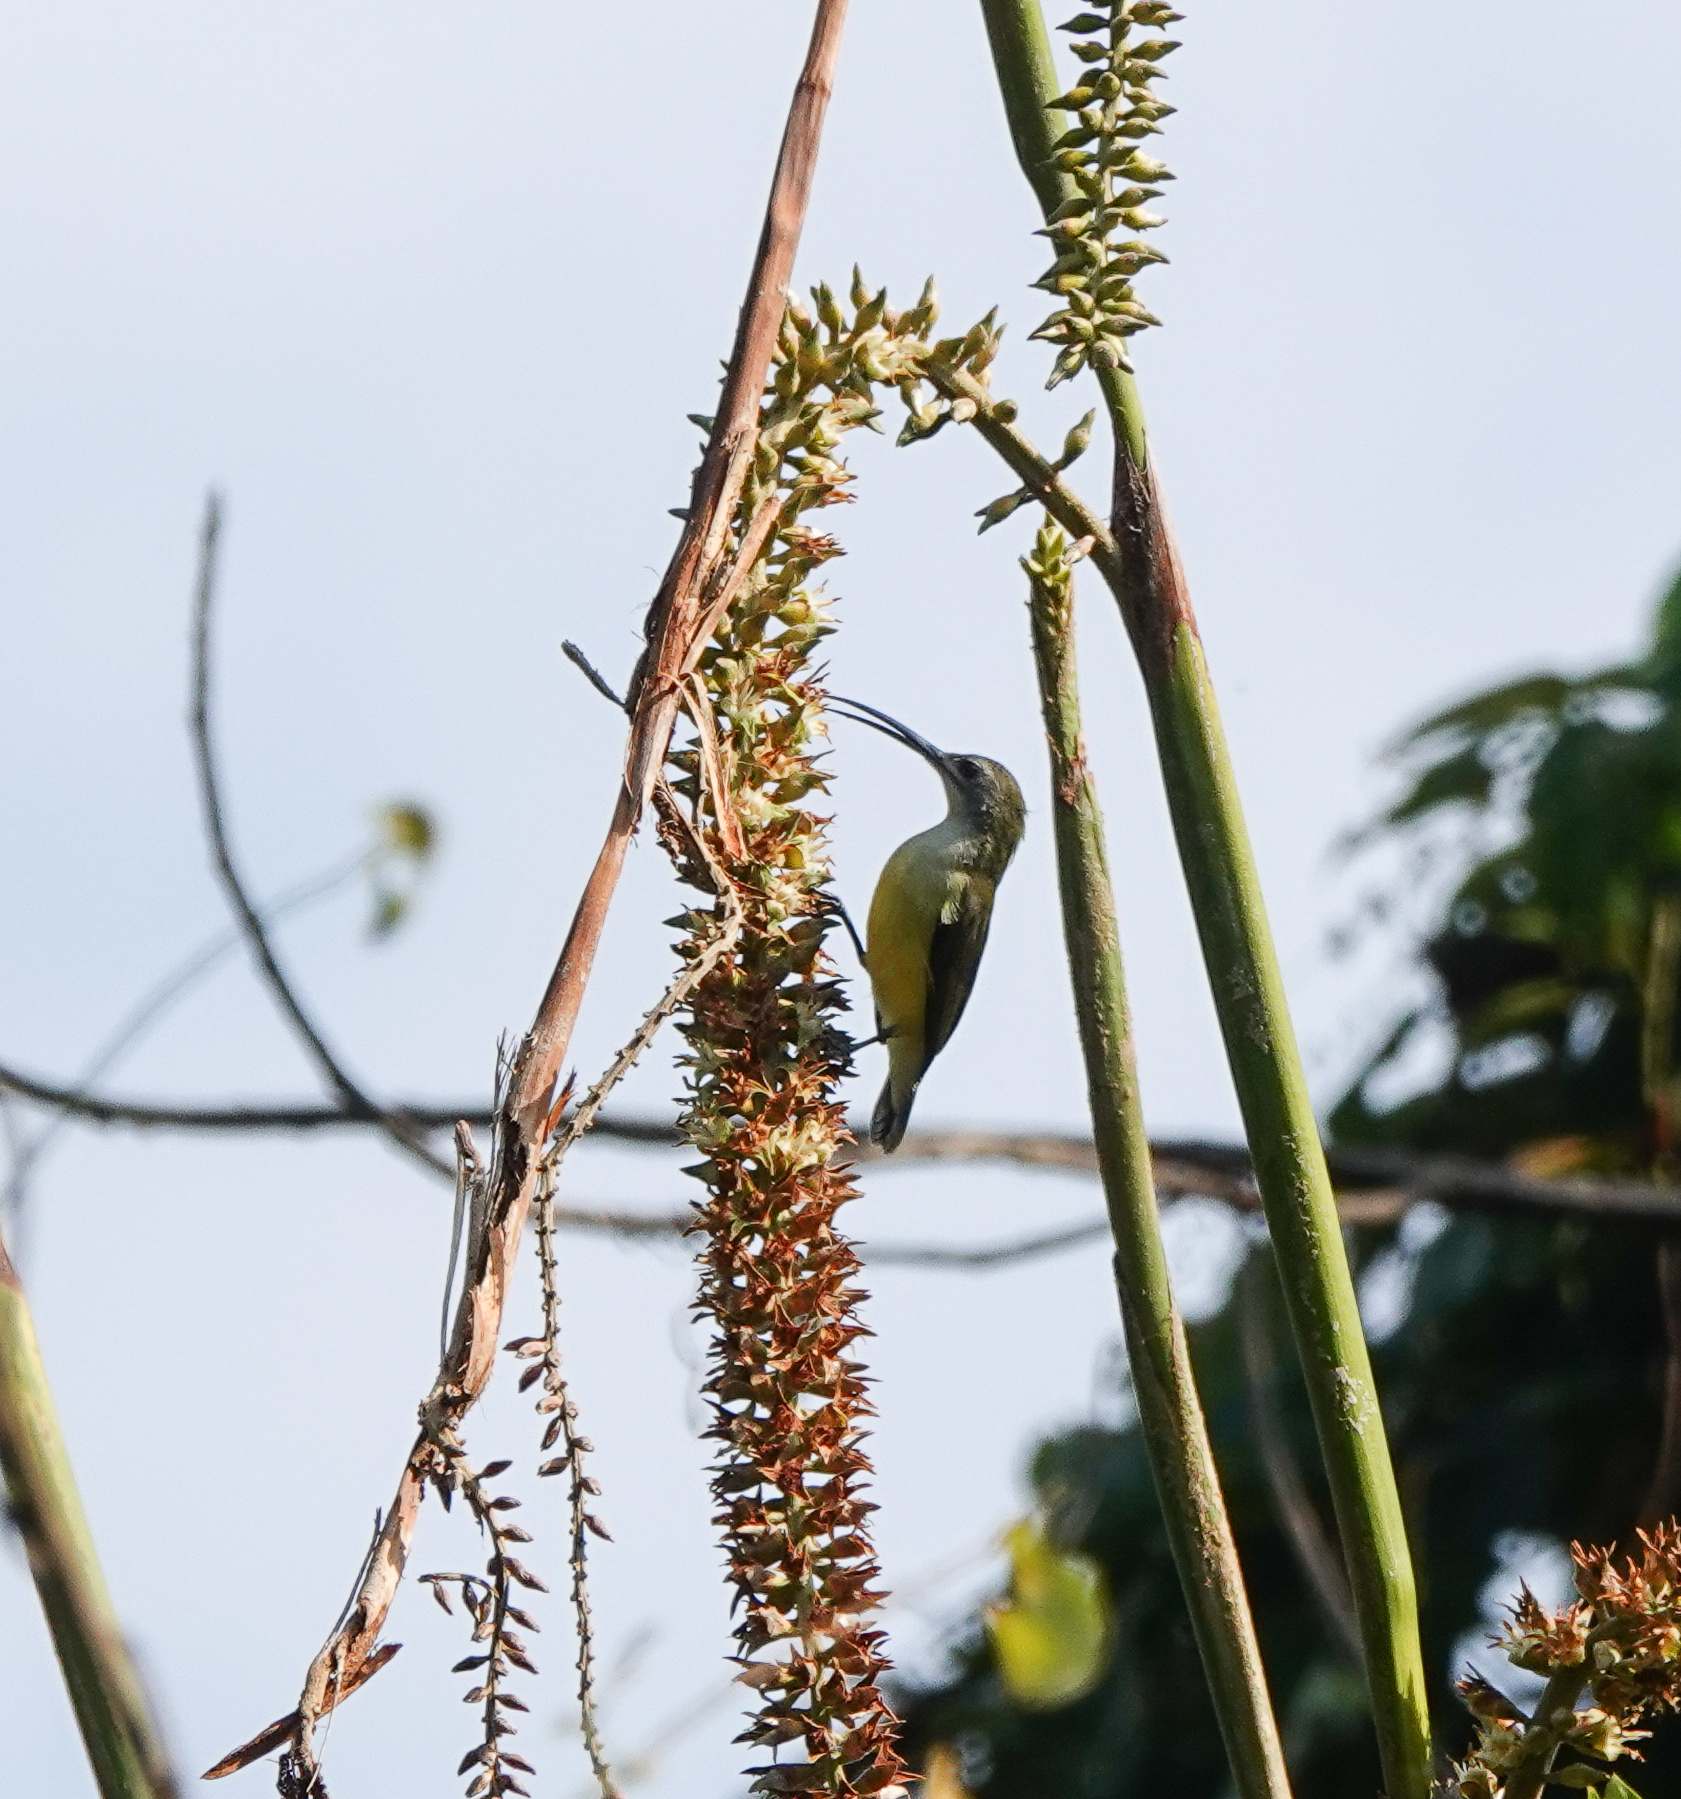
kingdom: Animalia
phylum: Chordata
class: Aves
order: Passeriformes
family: Nectariniidae
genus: Arachnothera
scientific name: Arachnothera longirostra
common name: Little spiderhunter
